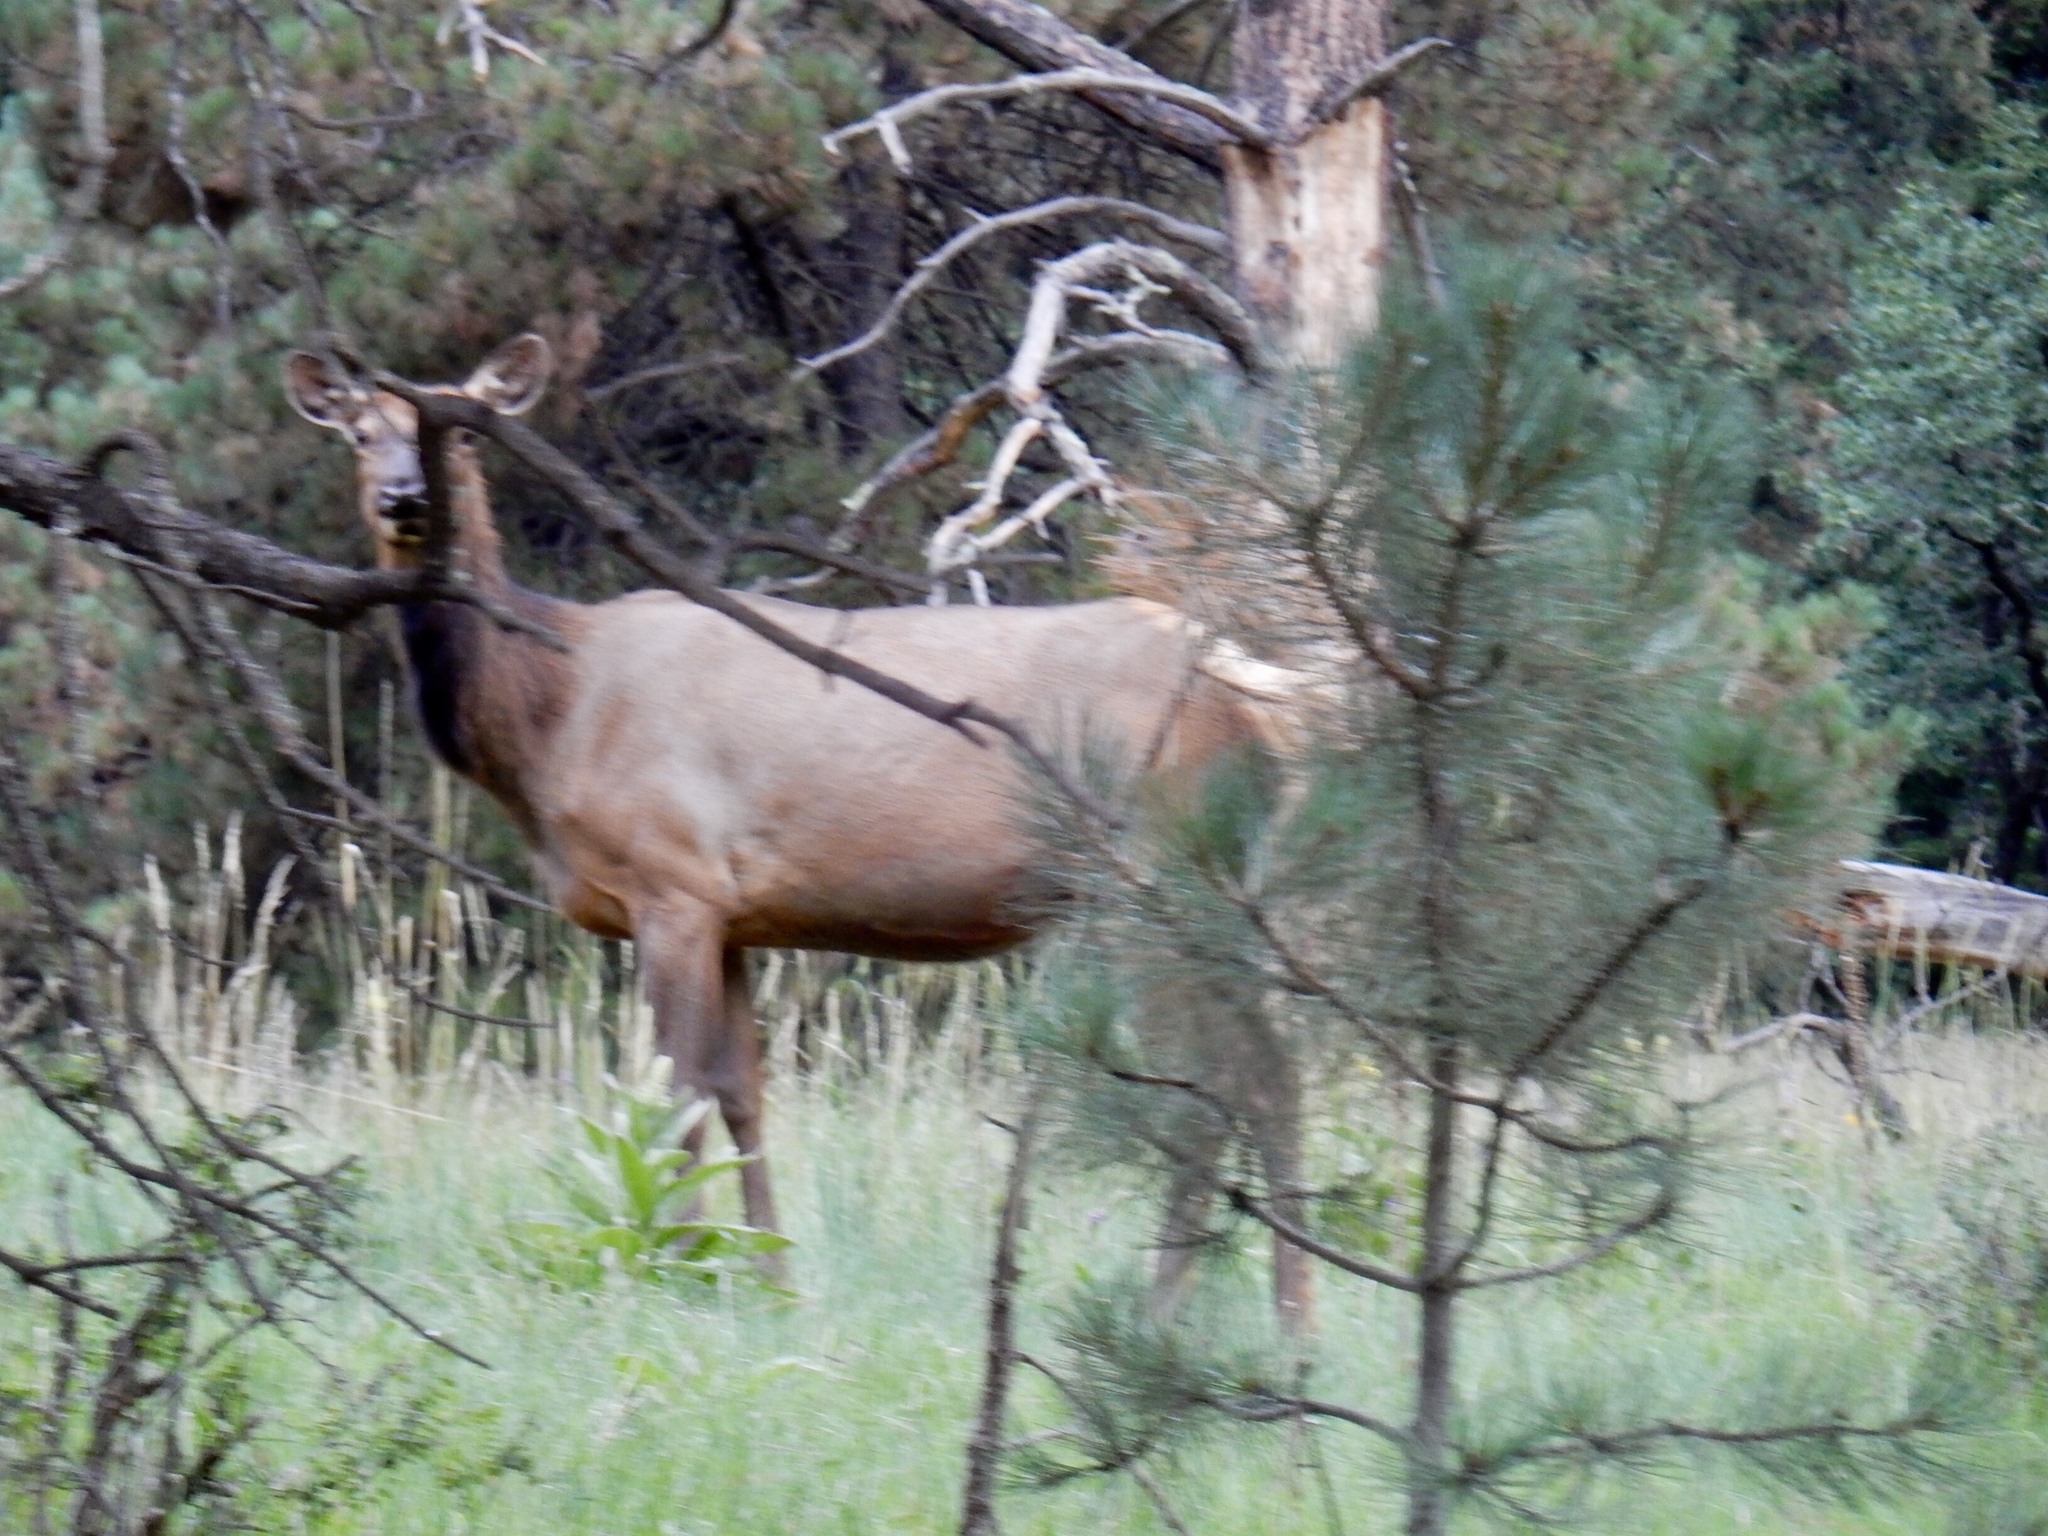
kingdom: Animalia
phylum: Chordata
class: Mammalia
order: Artiodactyla
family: Cervidae
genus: Cervus
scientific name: Cervus elaphus
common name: Red deer
